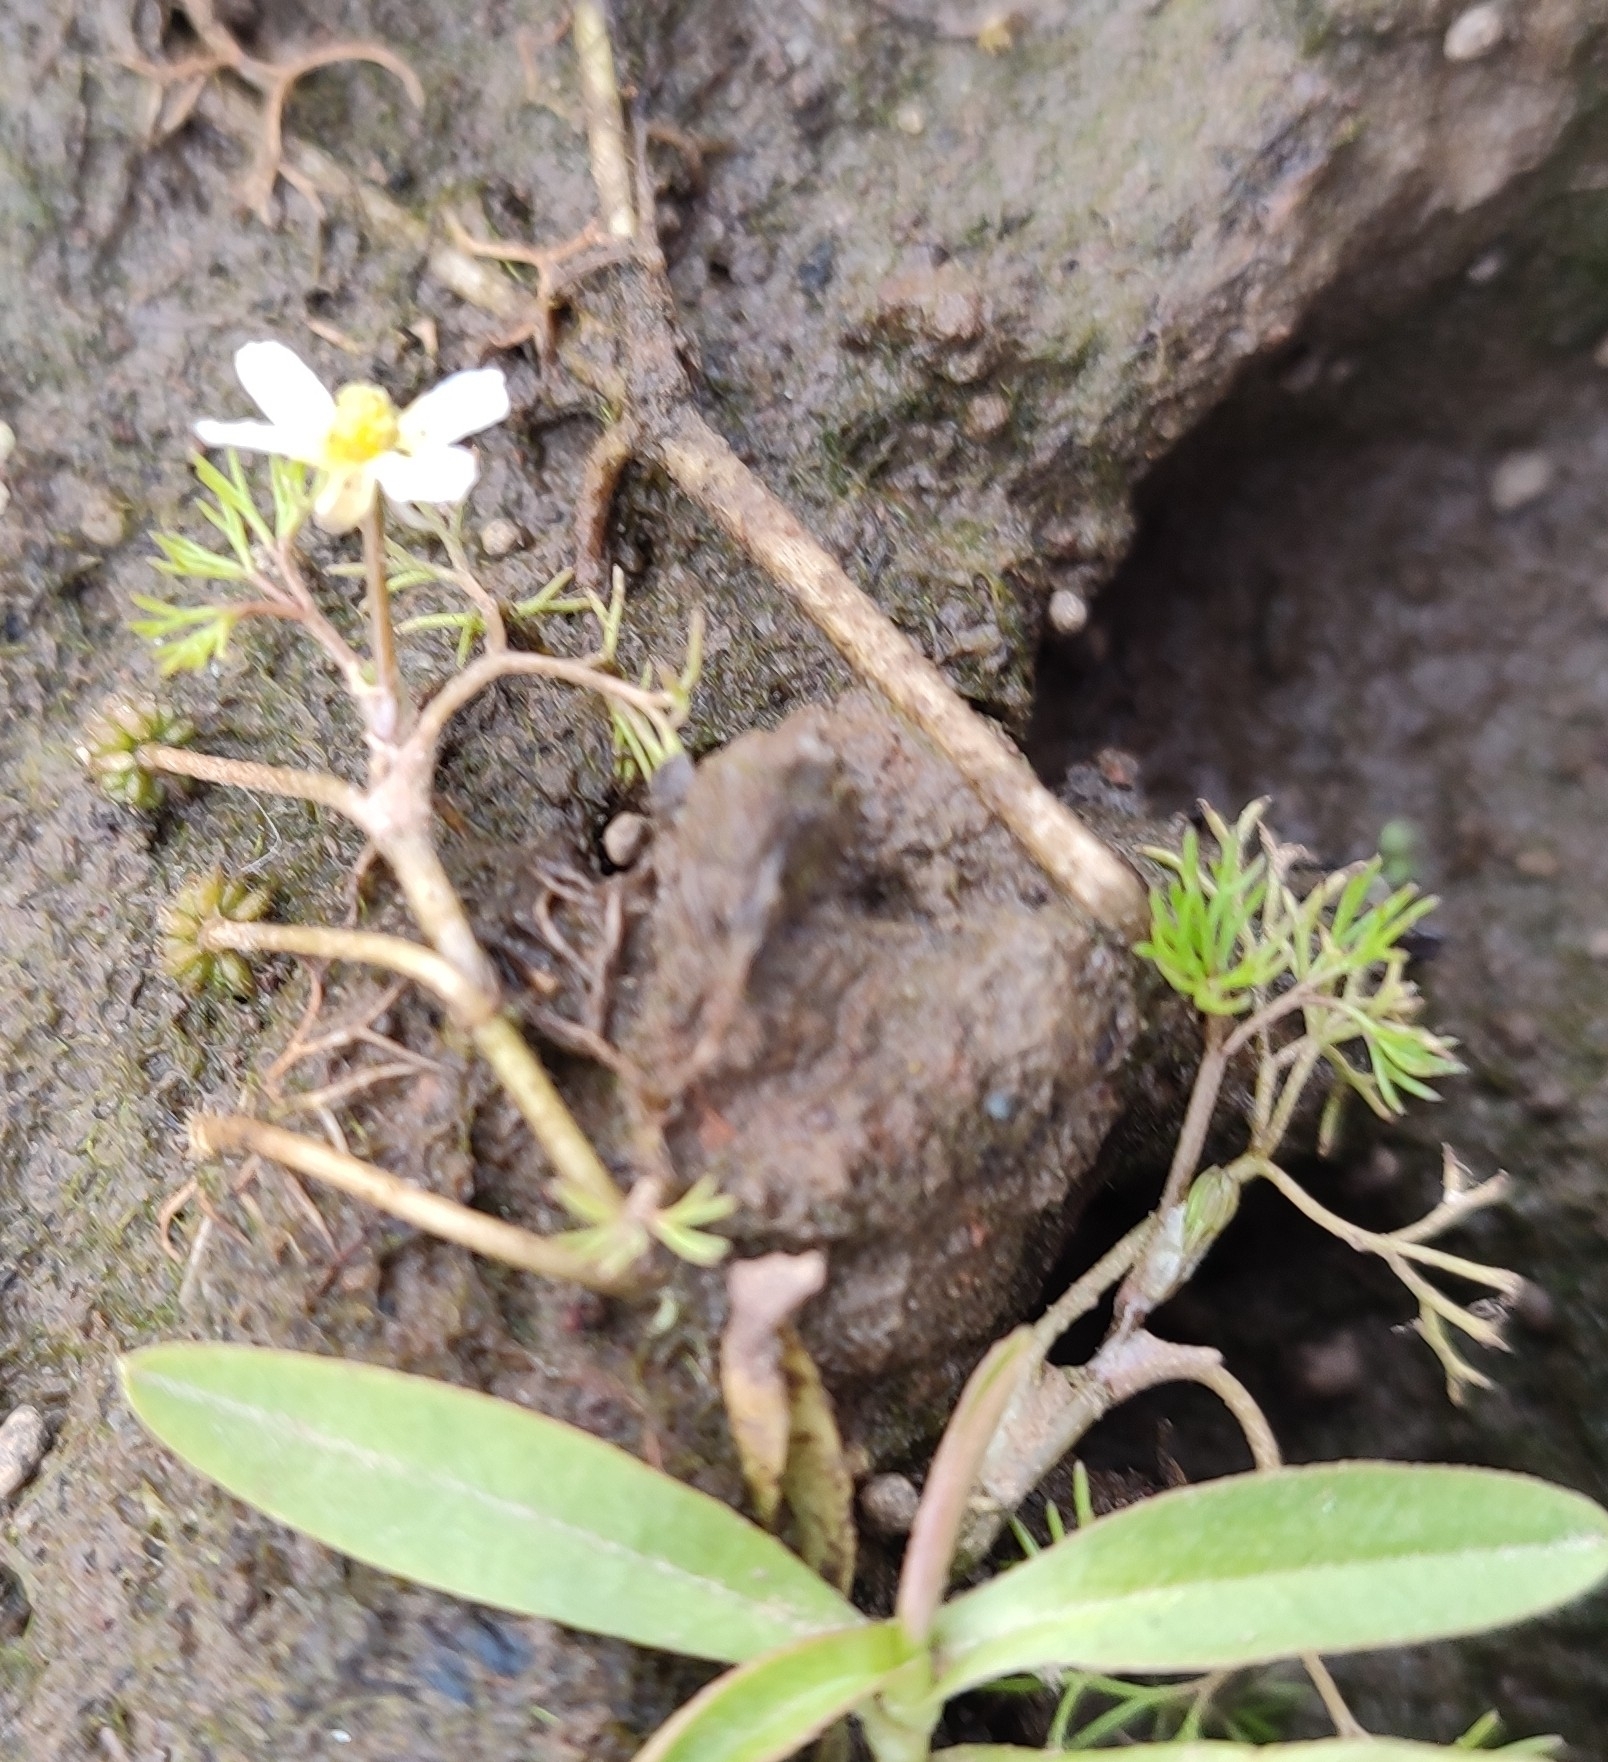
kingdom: Plantae
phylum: Tracheophyta
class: Magnoliopsida
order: Ranunculales
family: Ranunculaceae
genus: Ranunculus
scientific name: Ranunculus trichophyllus
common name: Thread-leaved water-crowfoot
